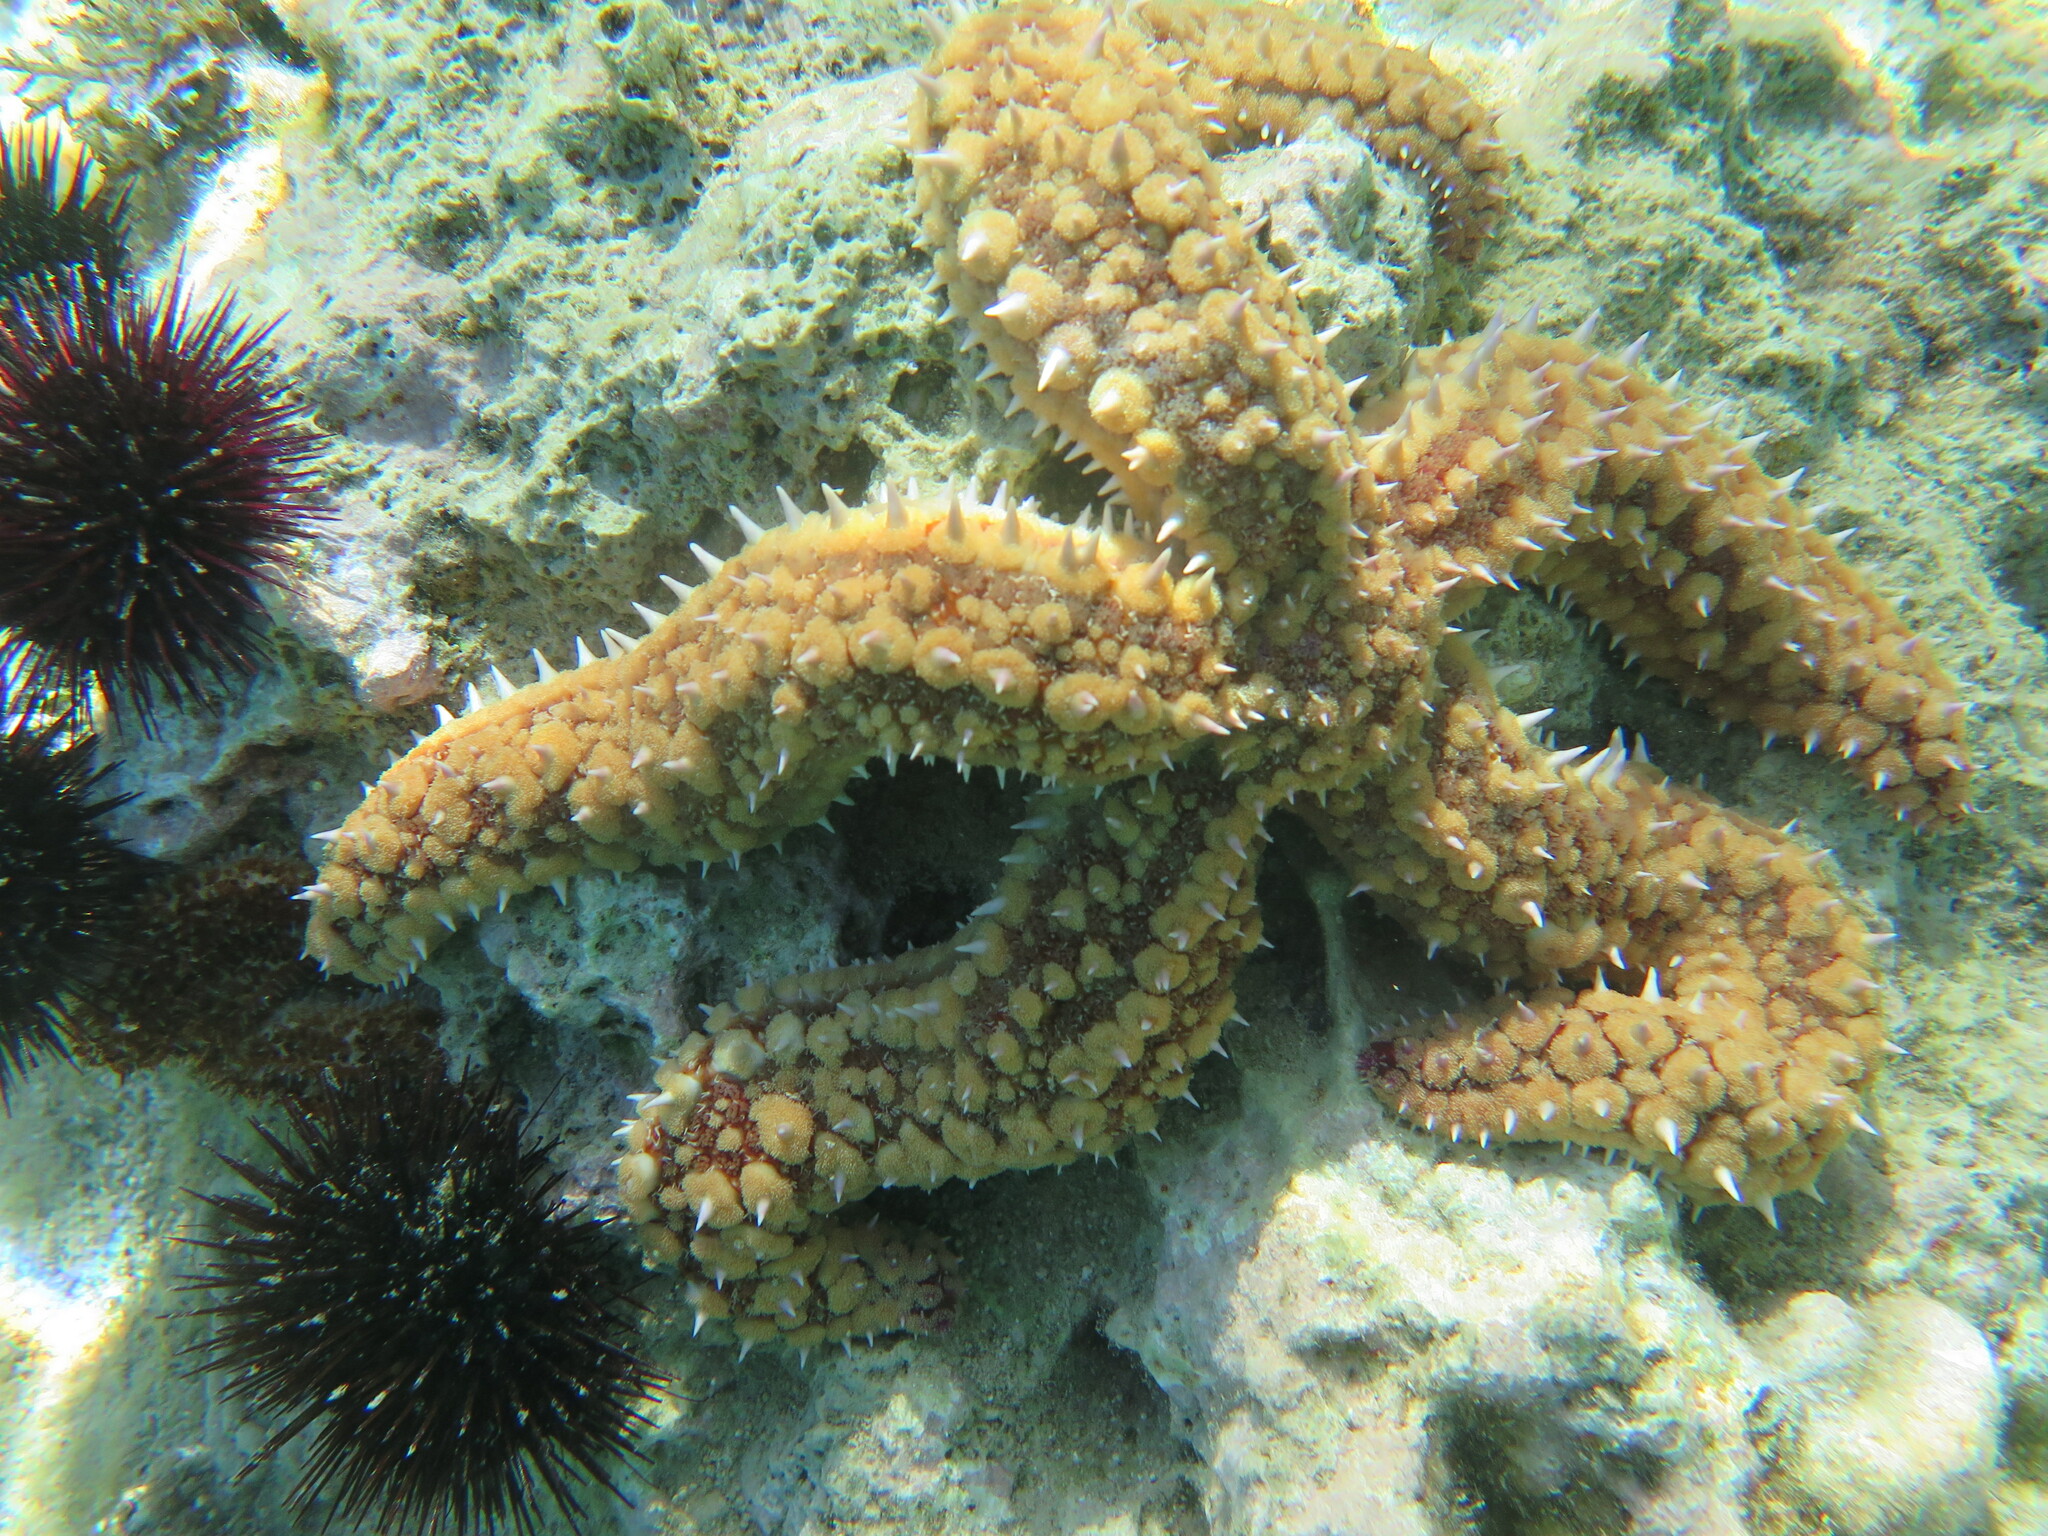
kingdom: Animalia
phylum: Echinodermata
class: Asteroidea
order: Forcipulatida
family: Asteriidae
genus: Marthasterias
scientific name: Marthasterias glacialis
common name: Spiny starfish
